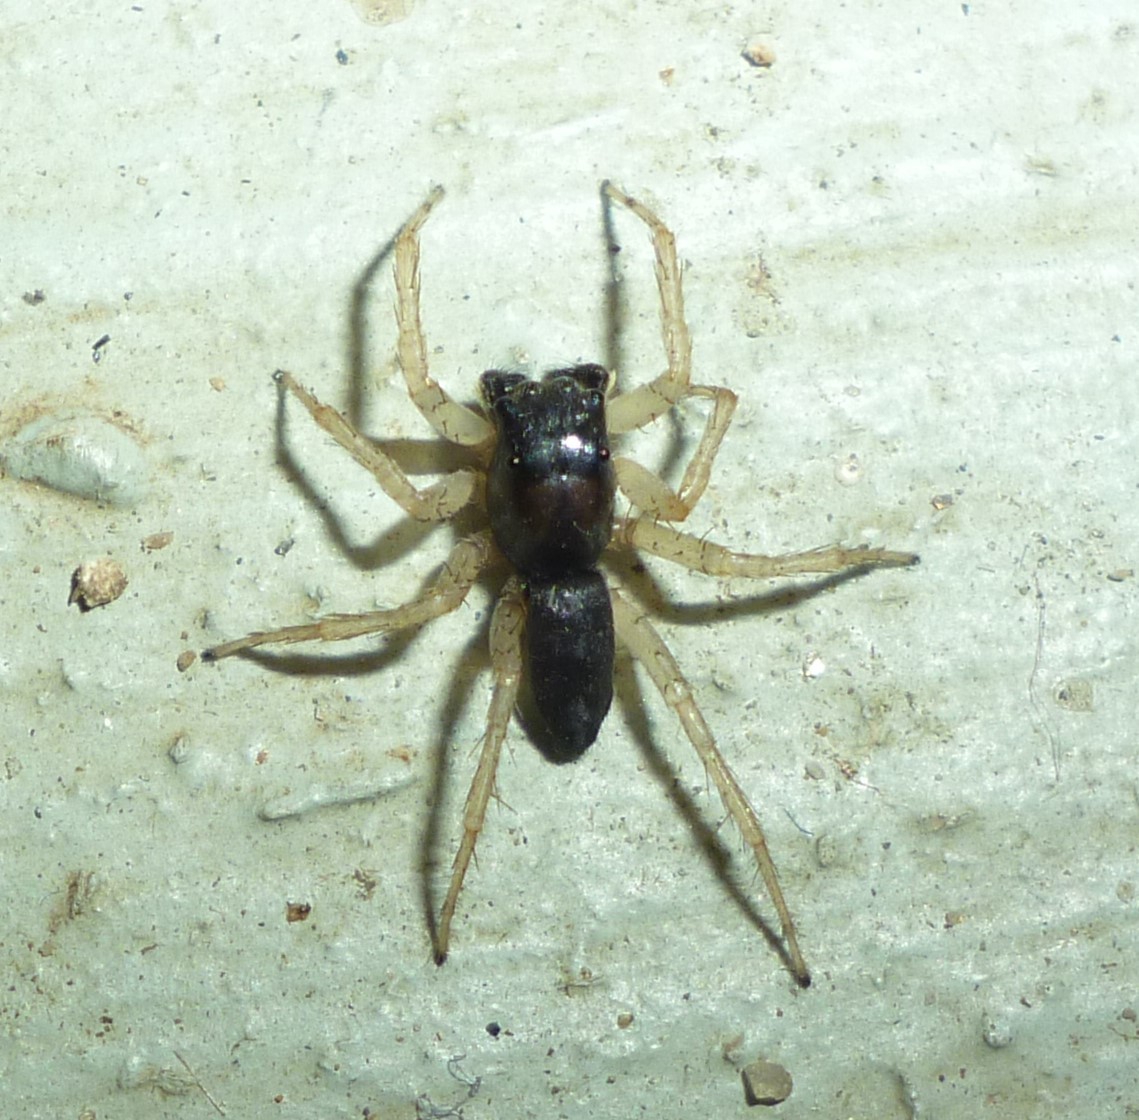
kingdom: Animalia
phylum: Arthropoda
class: Arachnida
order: Araneae
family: Salticidae
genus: Maevia
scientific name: Maevia inclemens
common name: Dimorphic jumper
